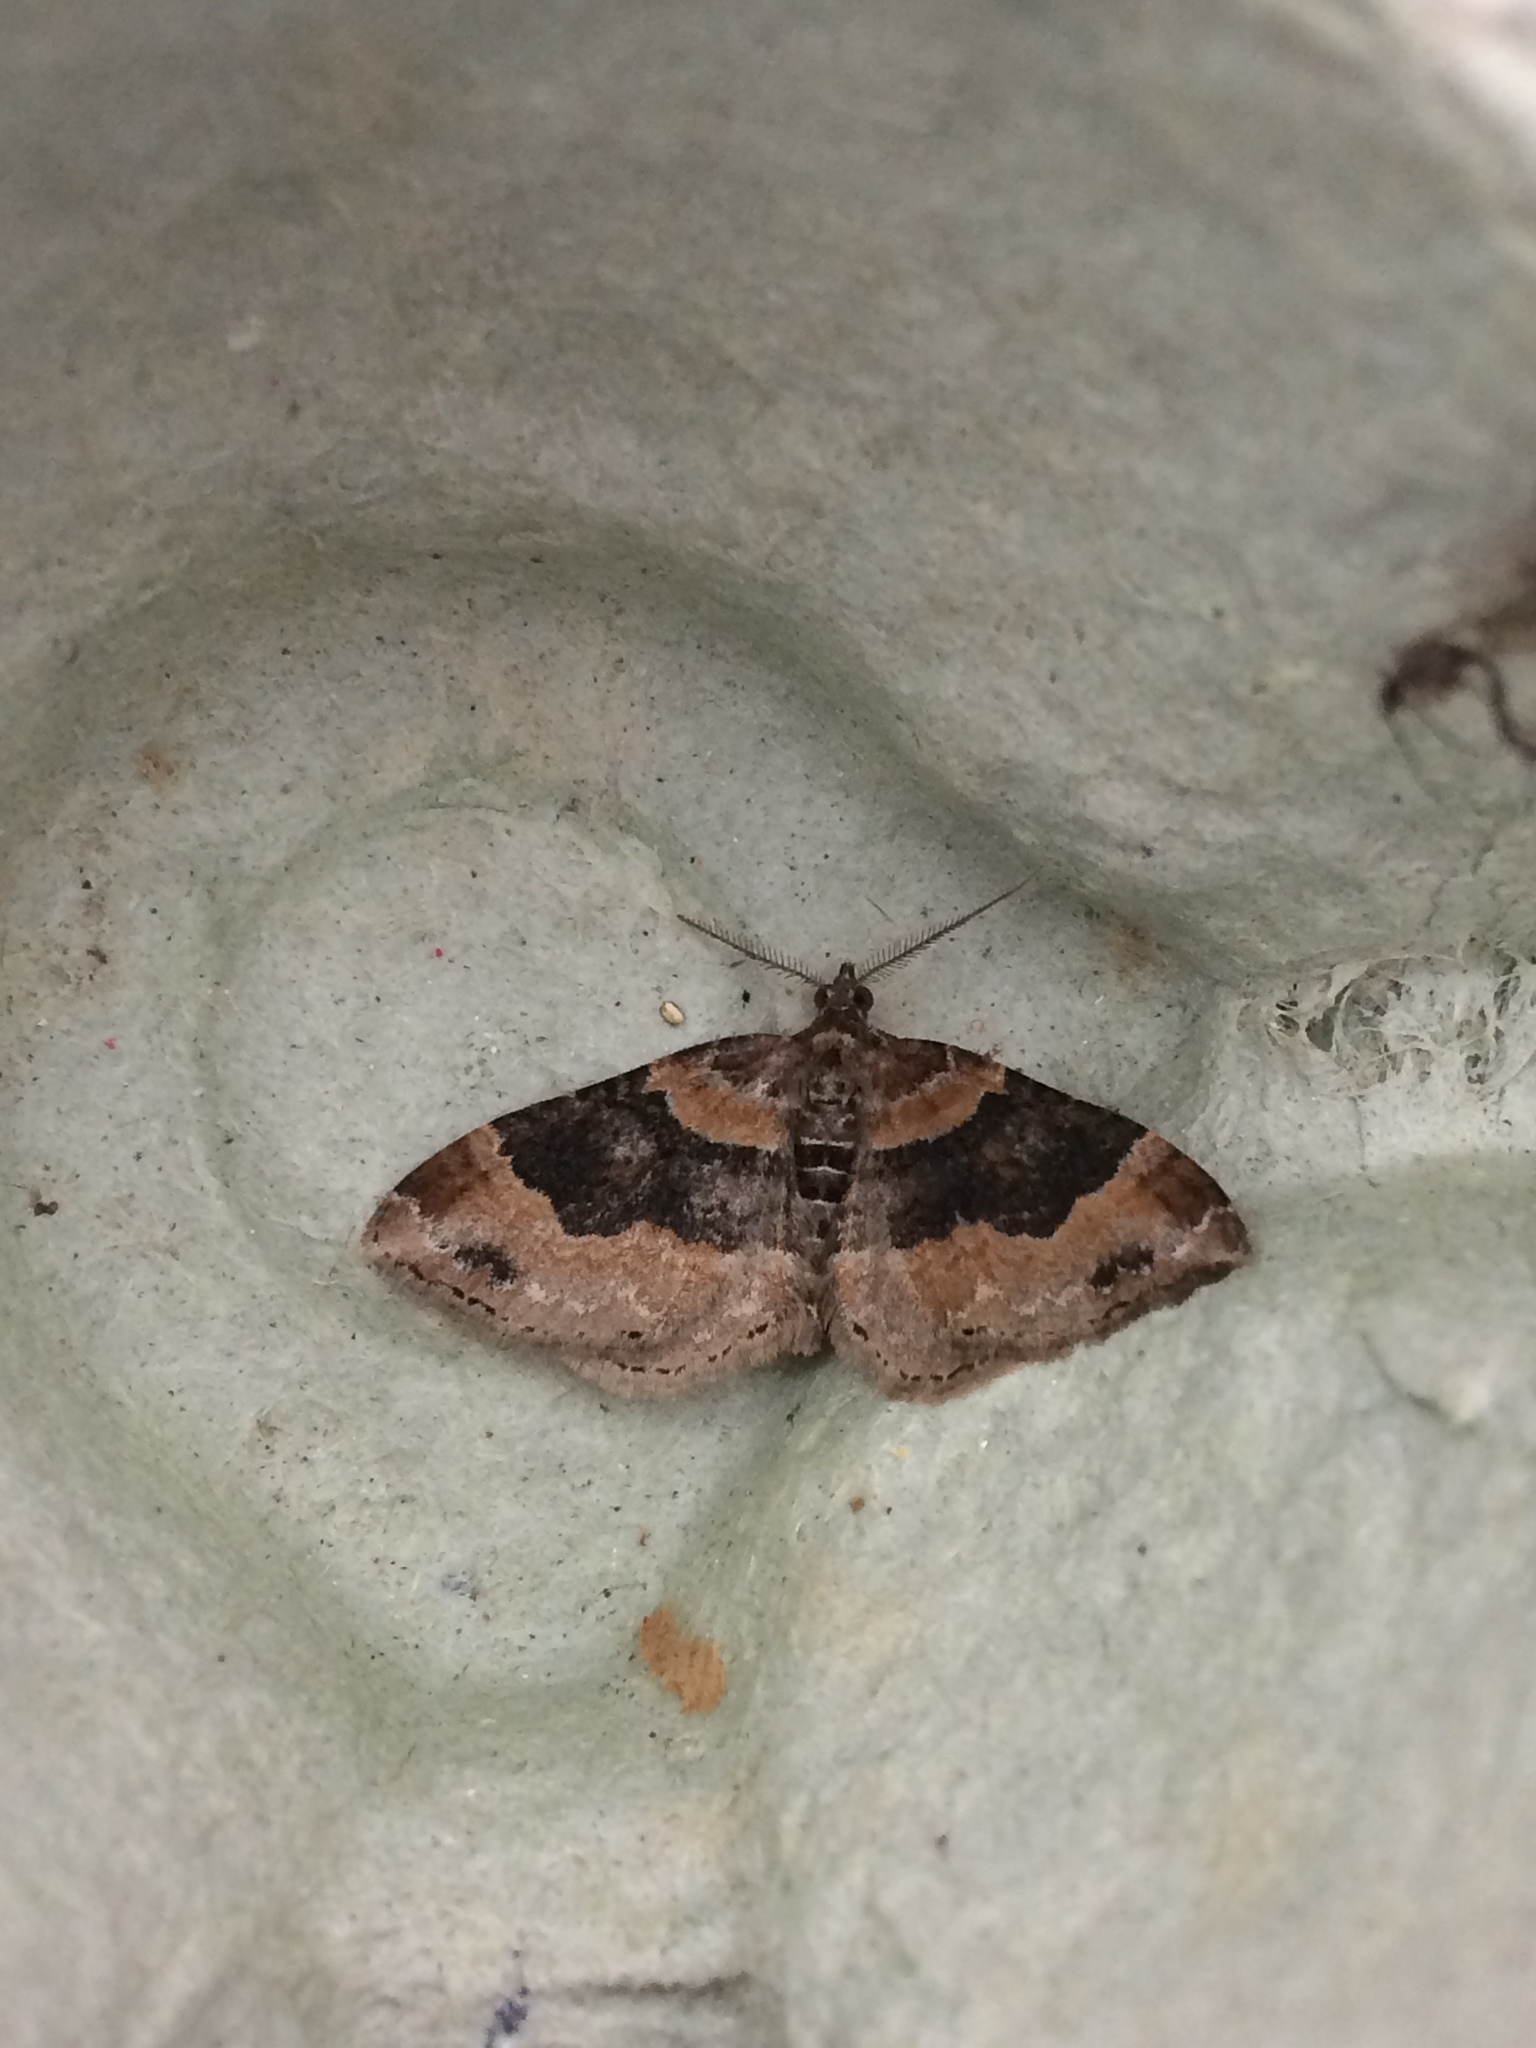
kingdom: Animalia
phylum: Arthropoda
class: Insecta
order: Lepidoptera
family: Geometridae
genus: Xanthorhoe
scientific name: Xanthorhoe ferrugata
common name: Dark-barred twin-spot carpet
